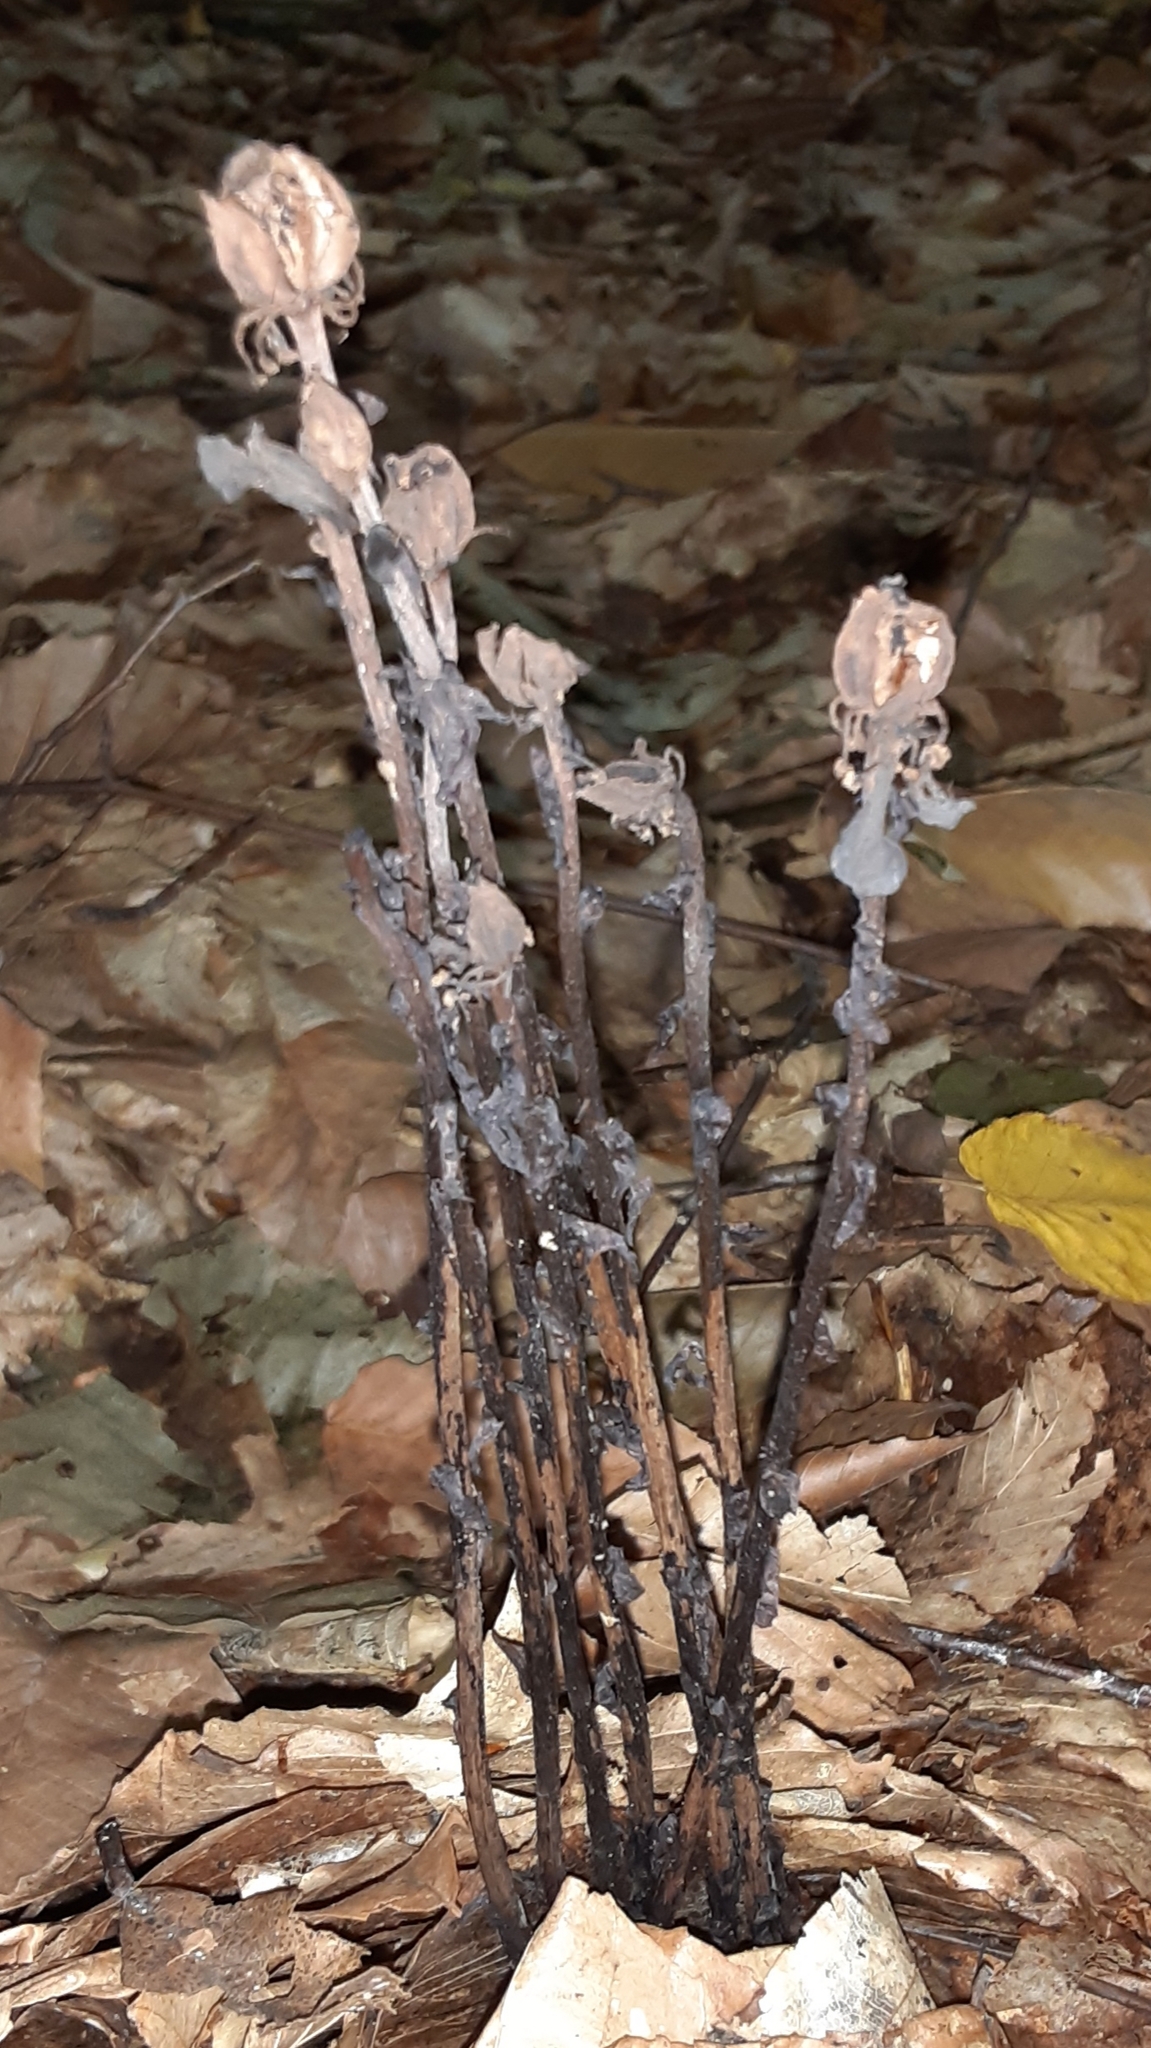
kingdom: Plantae
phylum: Tracheophyta
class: Magnoliopsida
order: Ericales
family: Ericaceae
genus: Monotropa
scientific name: Monotropa uniflora
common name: Convulsion root
